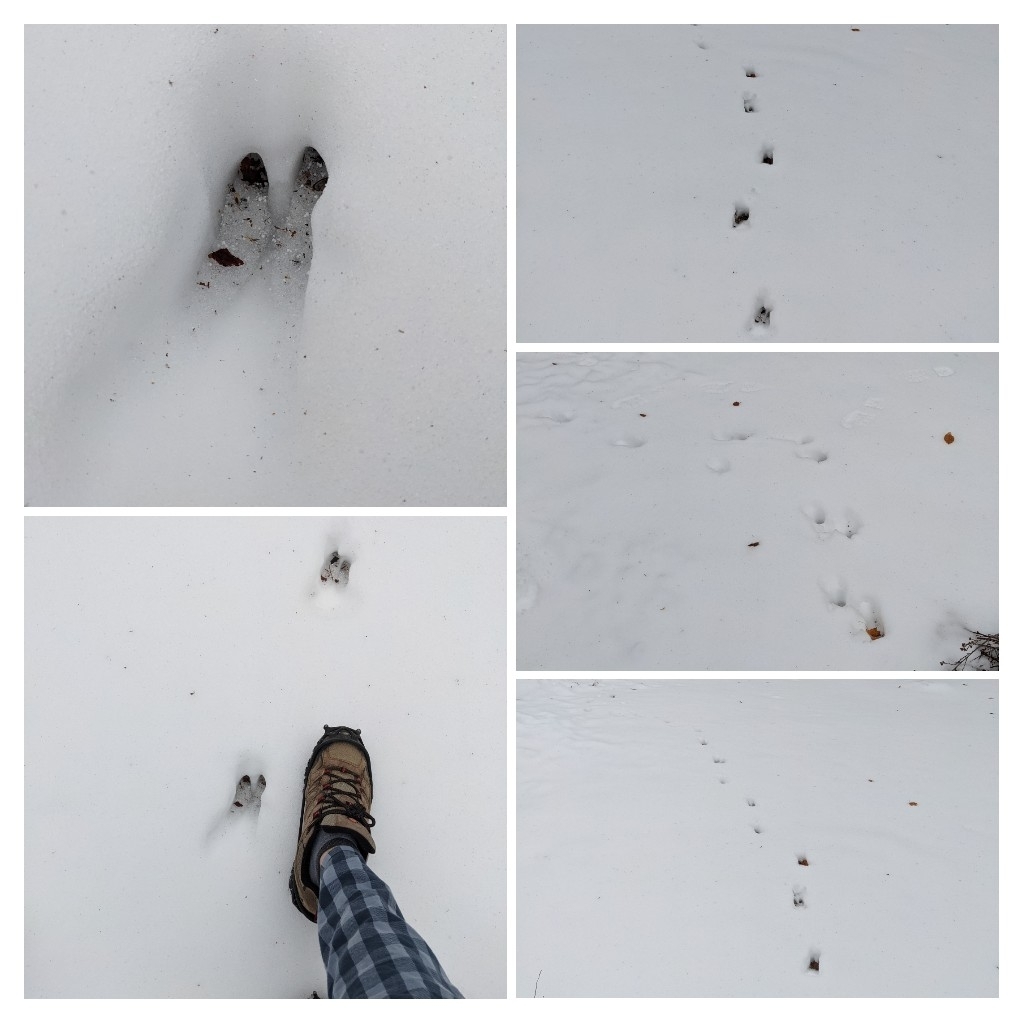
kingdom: Animalia
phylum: Chordata
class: Mammalia
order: Artiodactyla
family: Cervidae
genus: Odocoileus
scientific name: Odocoileus virginianus
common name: White-tailed deer
